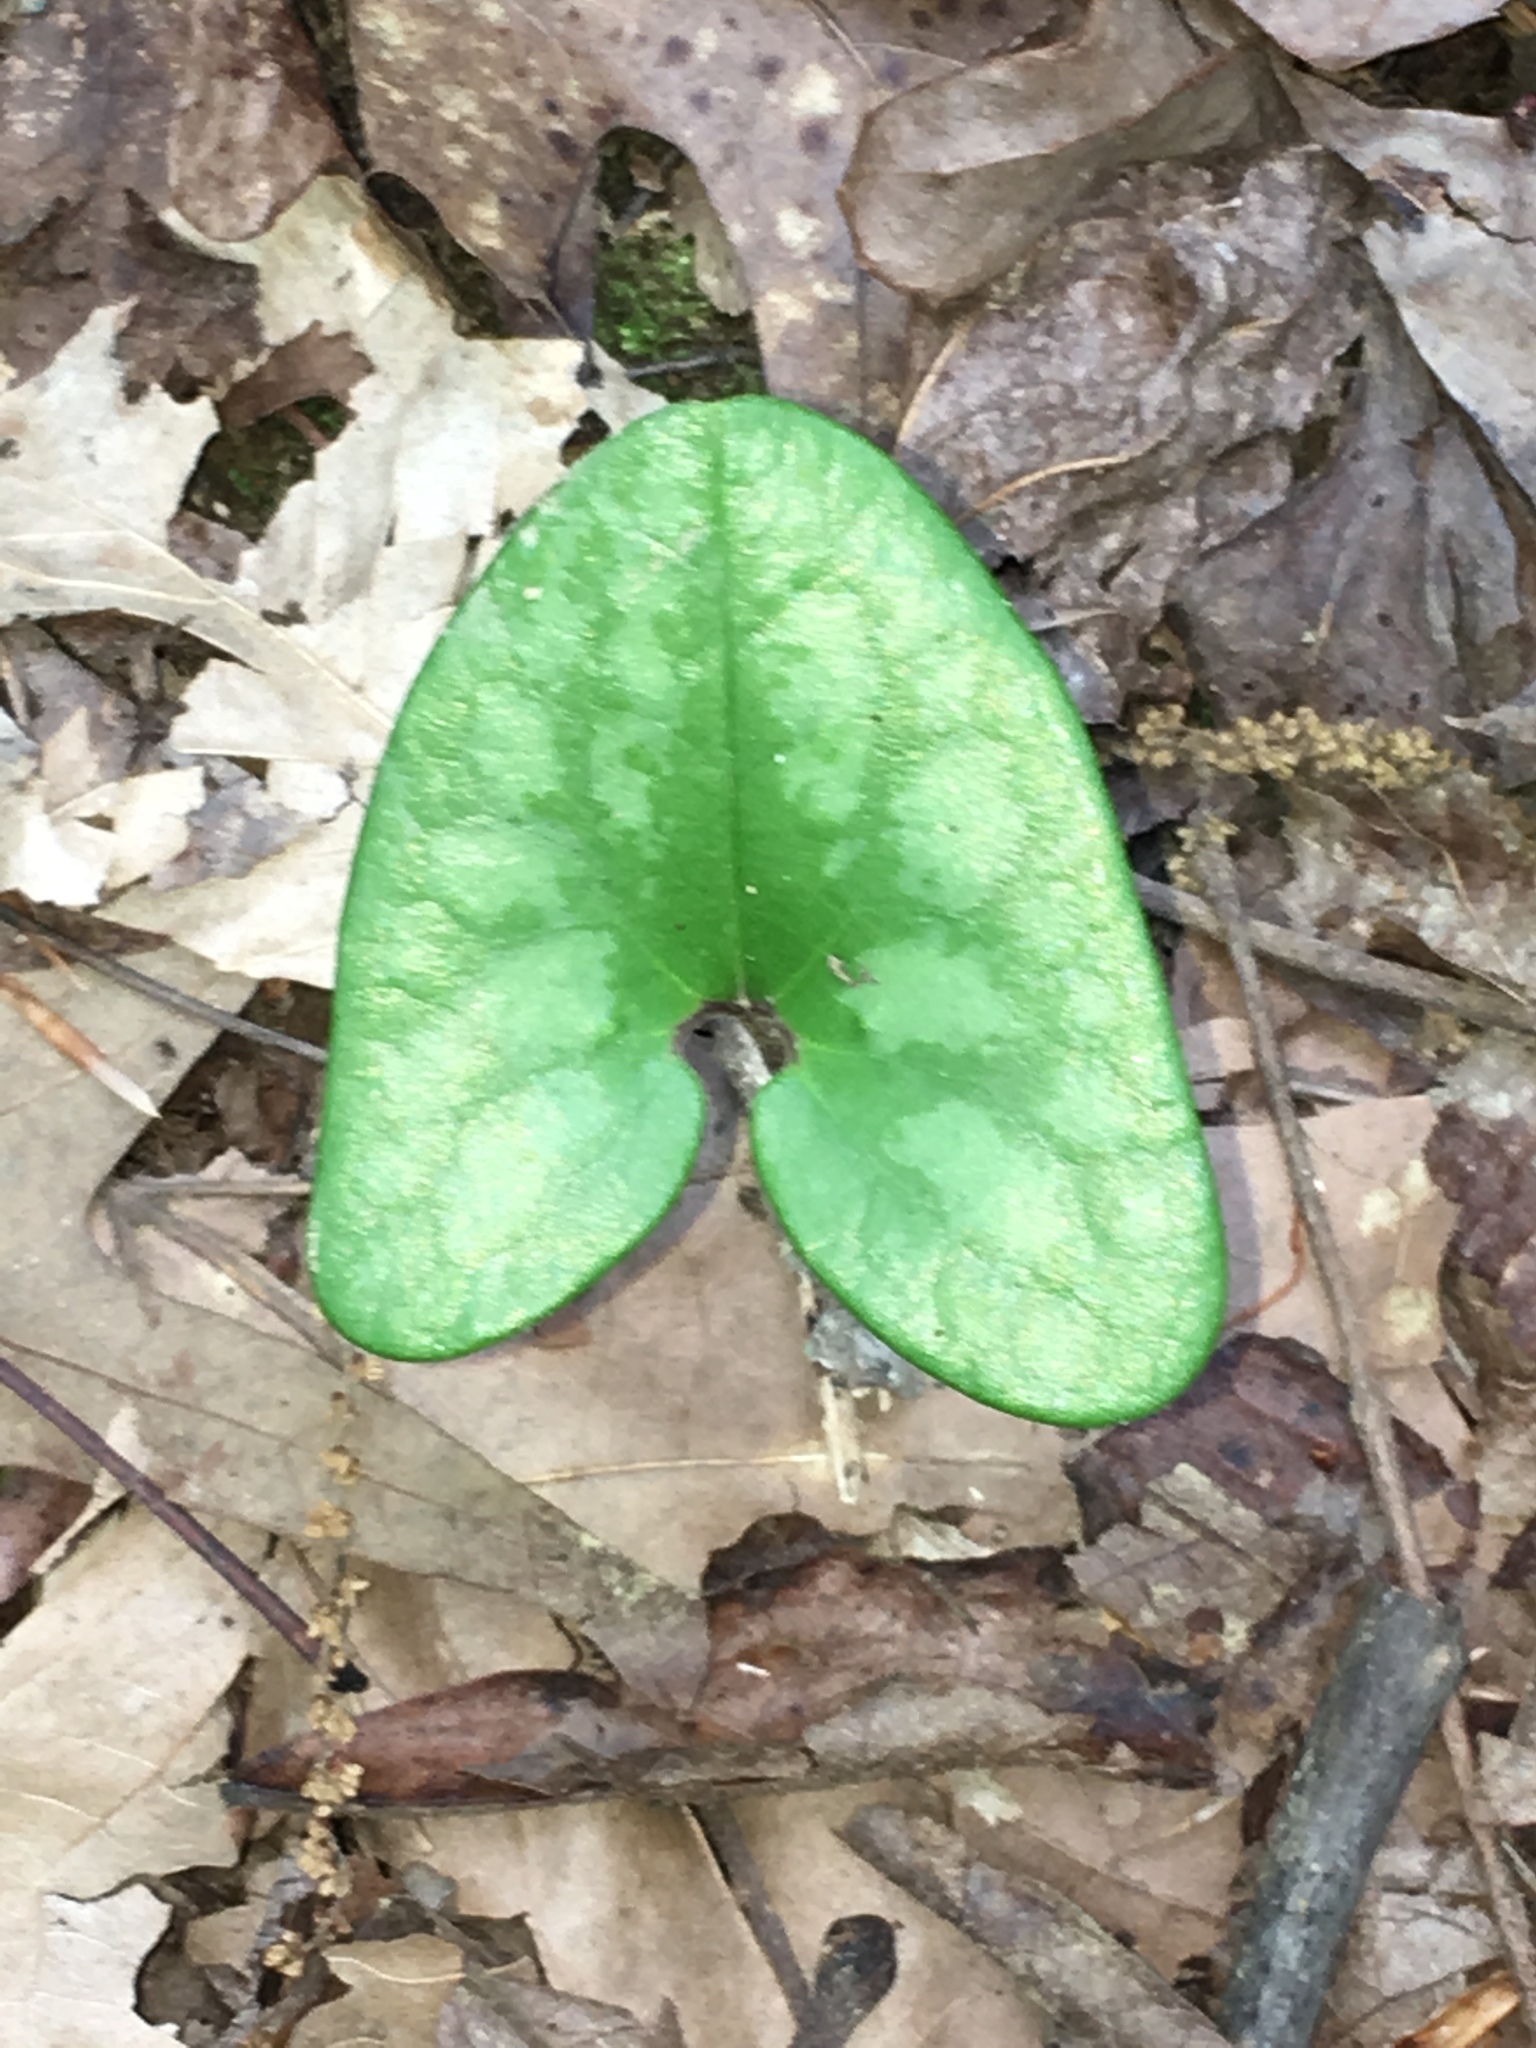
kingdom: Plantae
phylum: Tracheophyta
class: Magnoliopsida
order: Piperales
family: Aristolochiaceae
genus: Hexastylis
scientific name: Hexastylis arifolia
